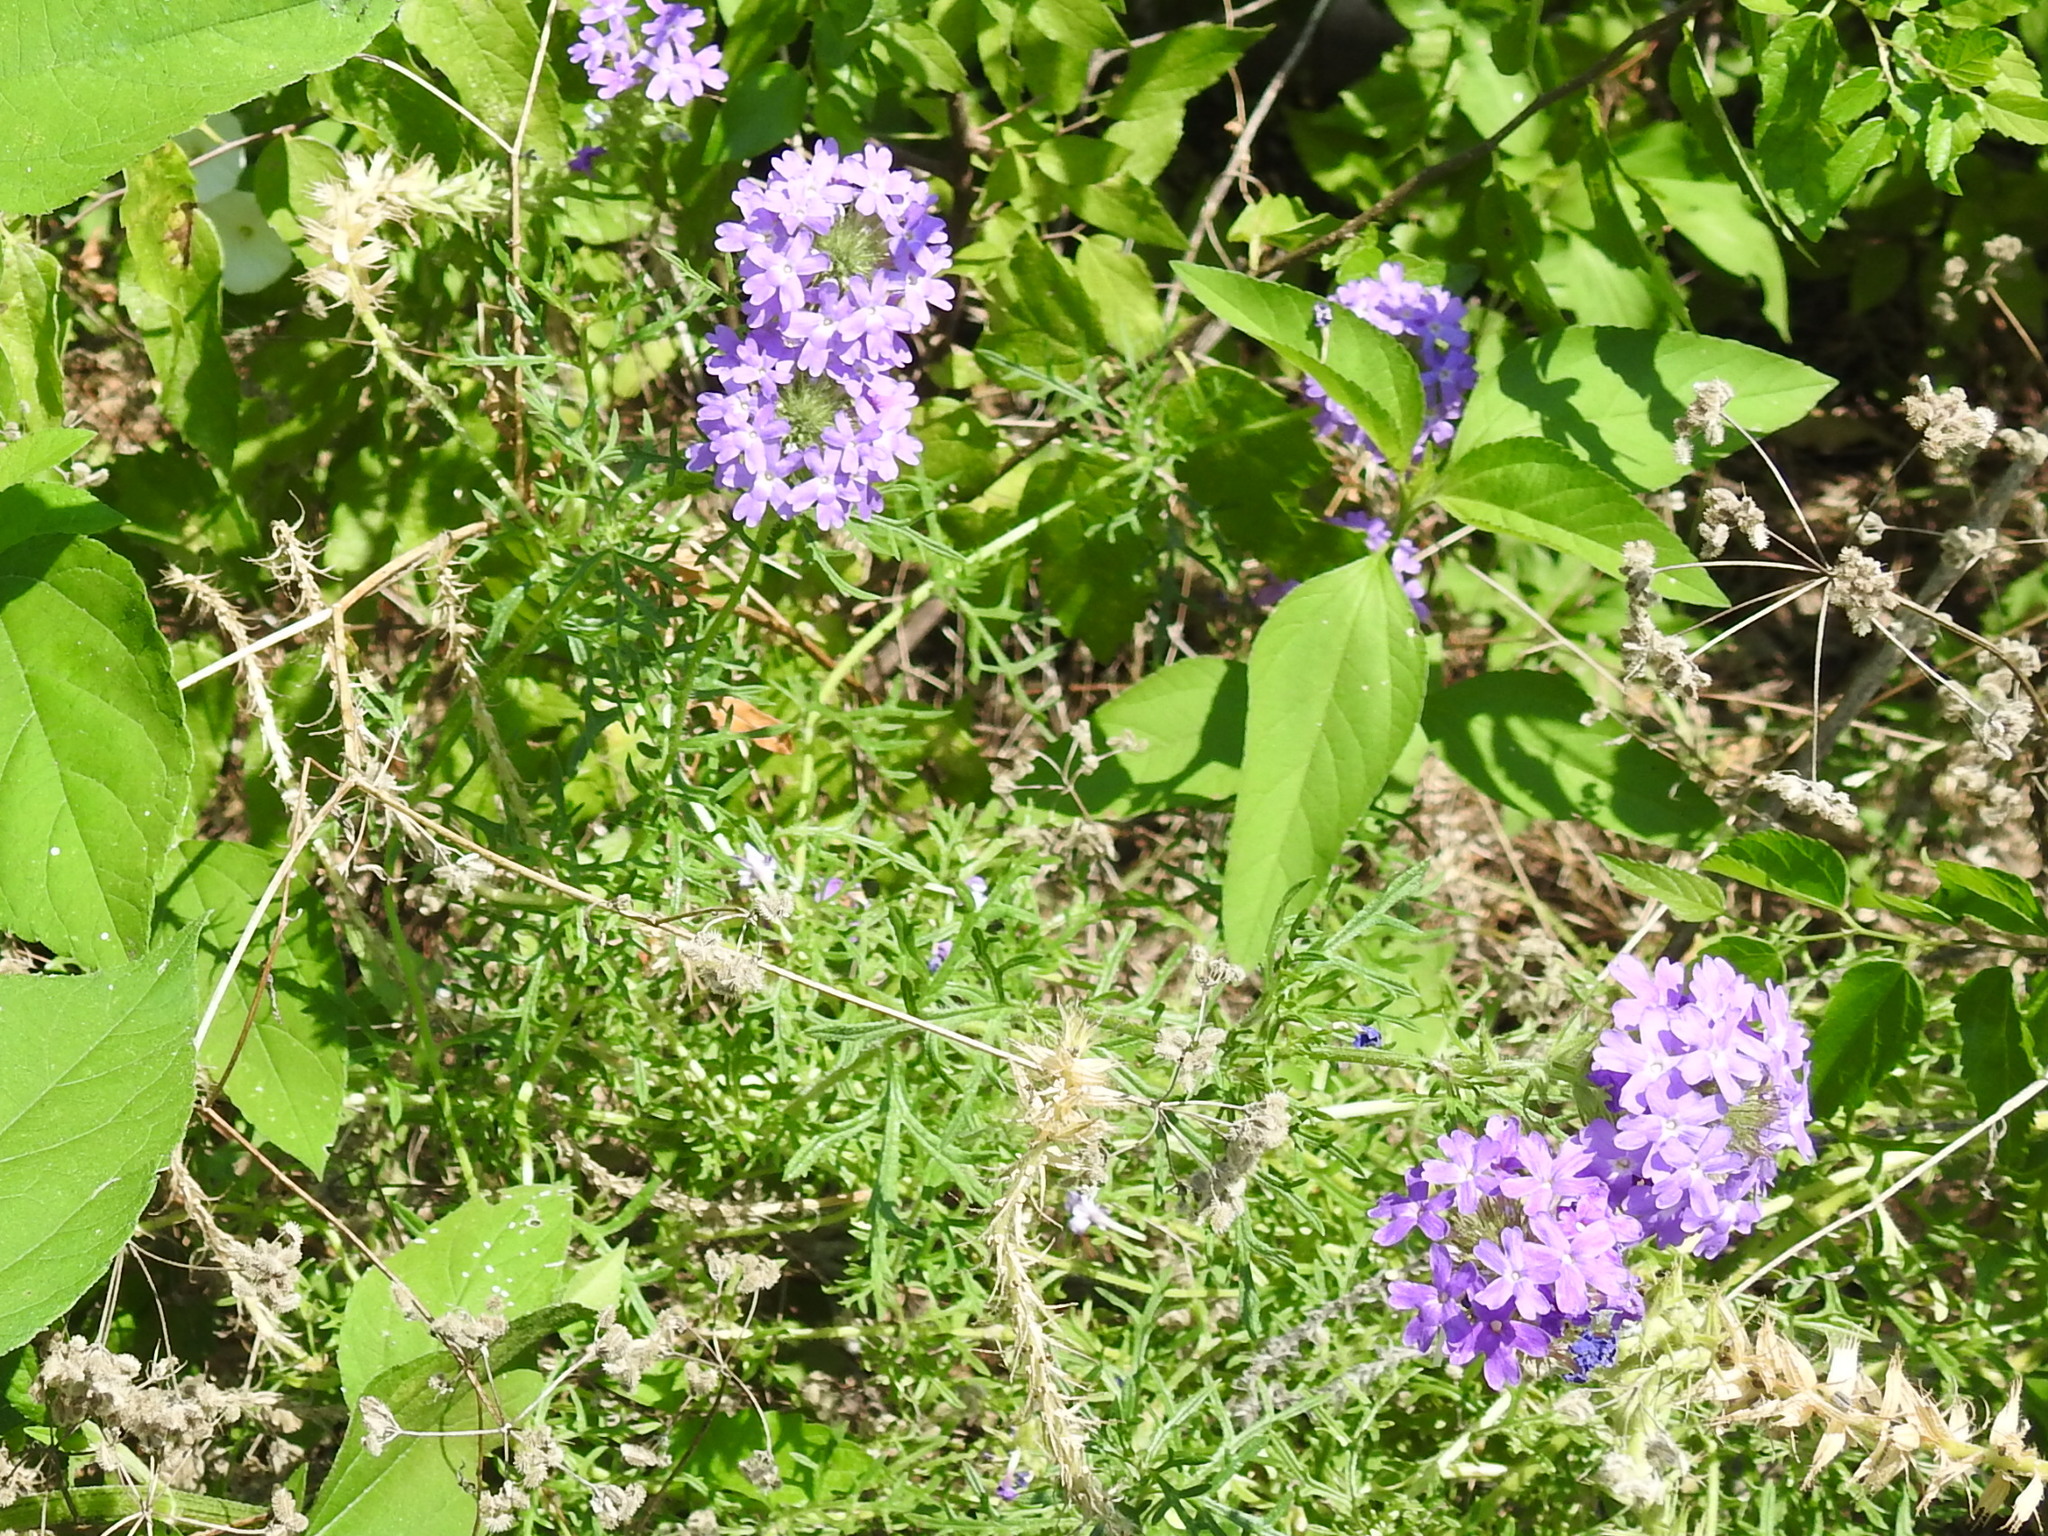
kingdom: Plantae
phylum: Tracheophyta
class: Magnoliopsida
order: Lamiales
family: Verbenaceae
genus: Verbena
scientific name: Verbena bipinnatifida
